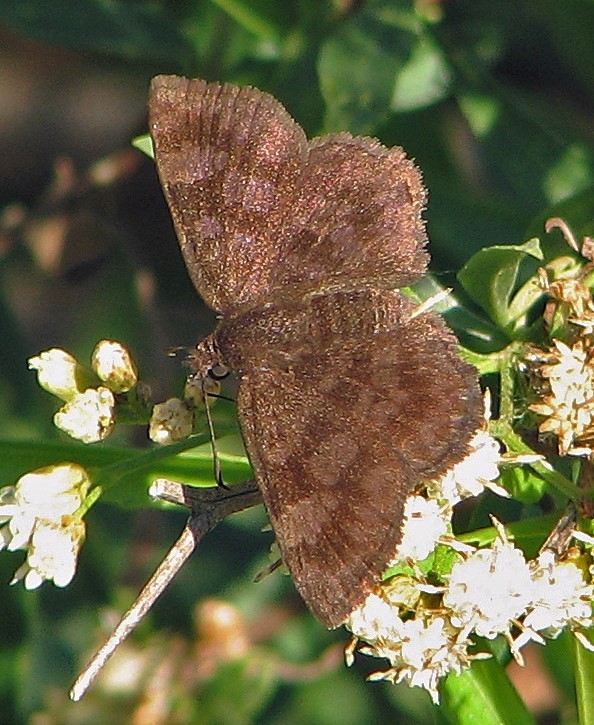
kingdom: Animalia
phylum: Arthropoda
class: Insecta
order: Lepidoptera
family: Hesperiidae
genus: Viola
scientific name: Viola minor
